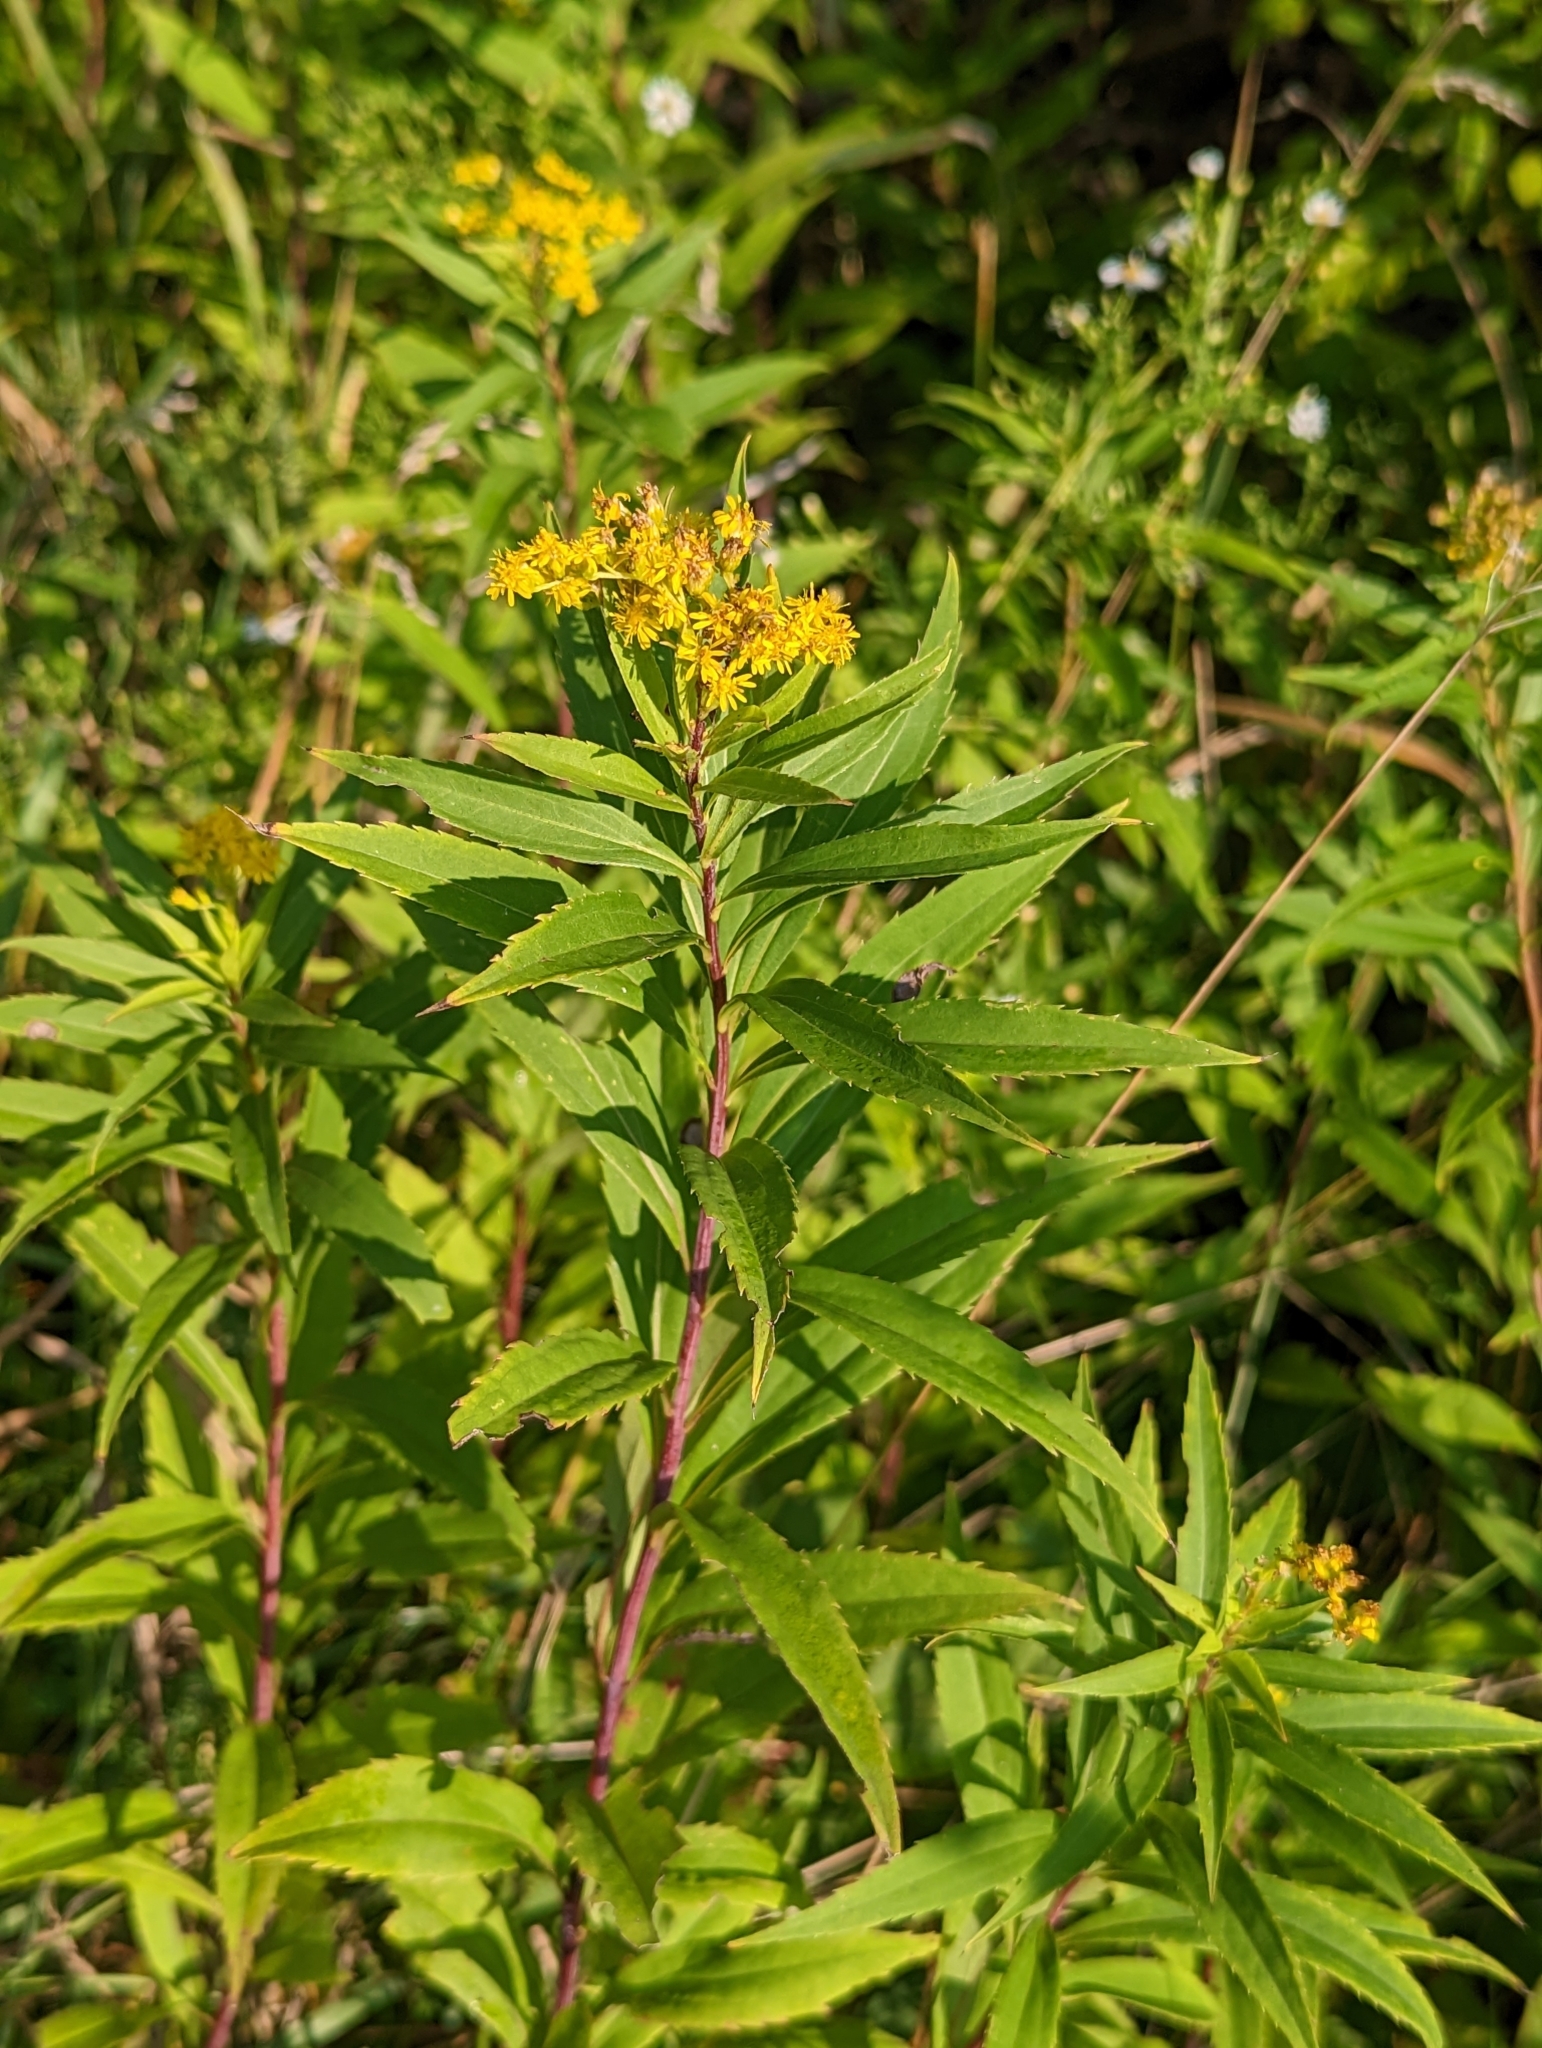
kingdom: Plantae
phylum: Tracheophyta
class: Magnoliopsida
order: Asterales
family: Asteraceae
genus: Solidago
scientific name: Solidago gigantea
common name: Giant goldenrod
